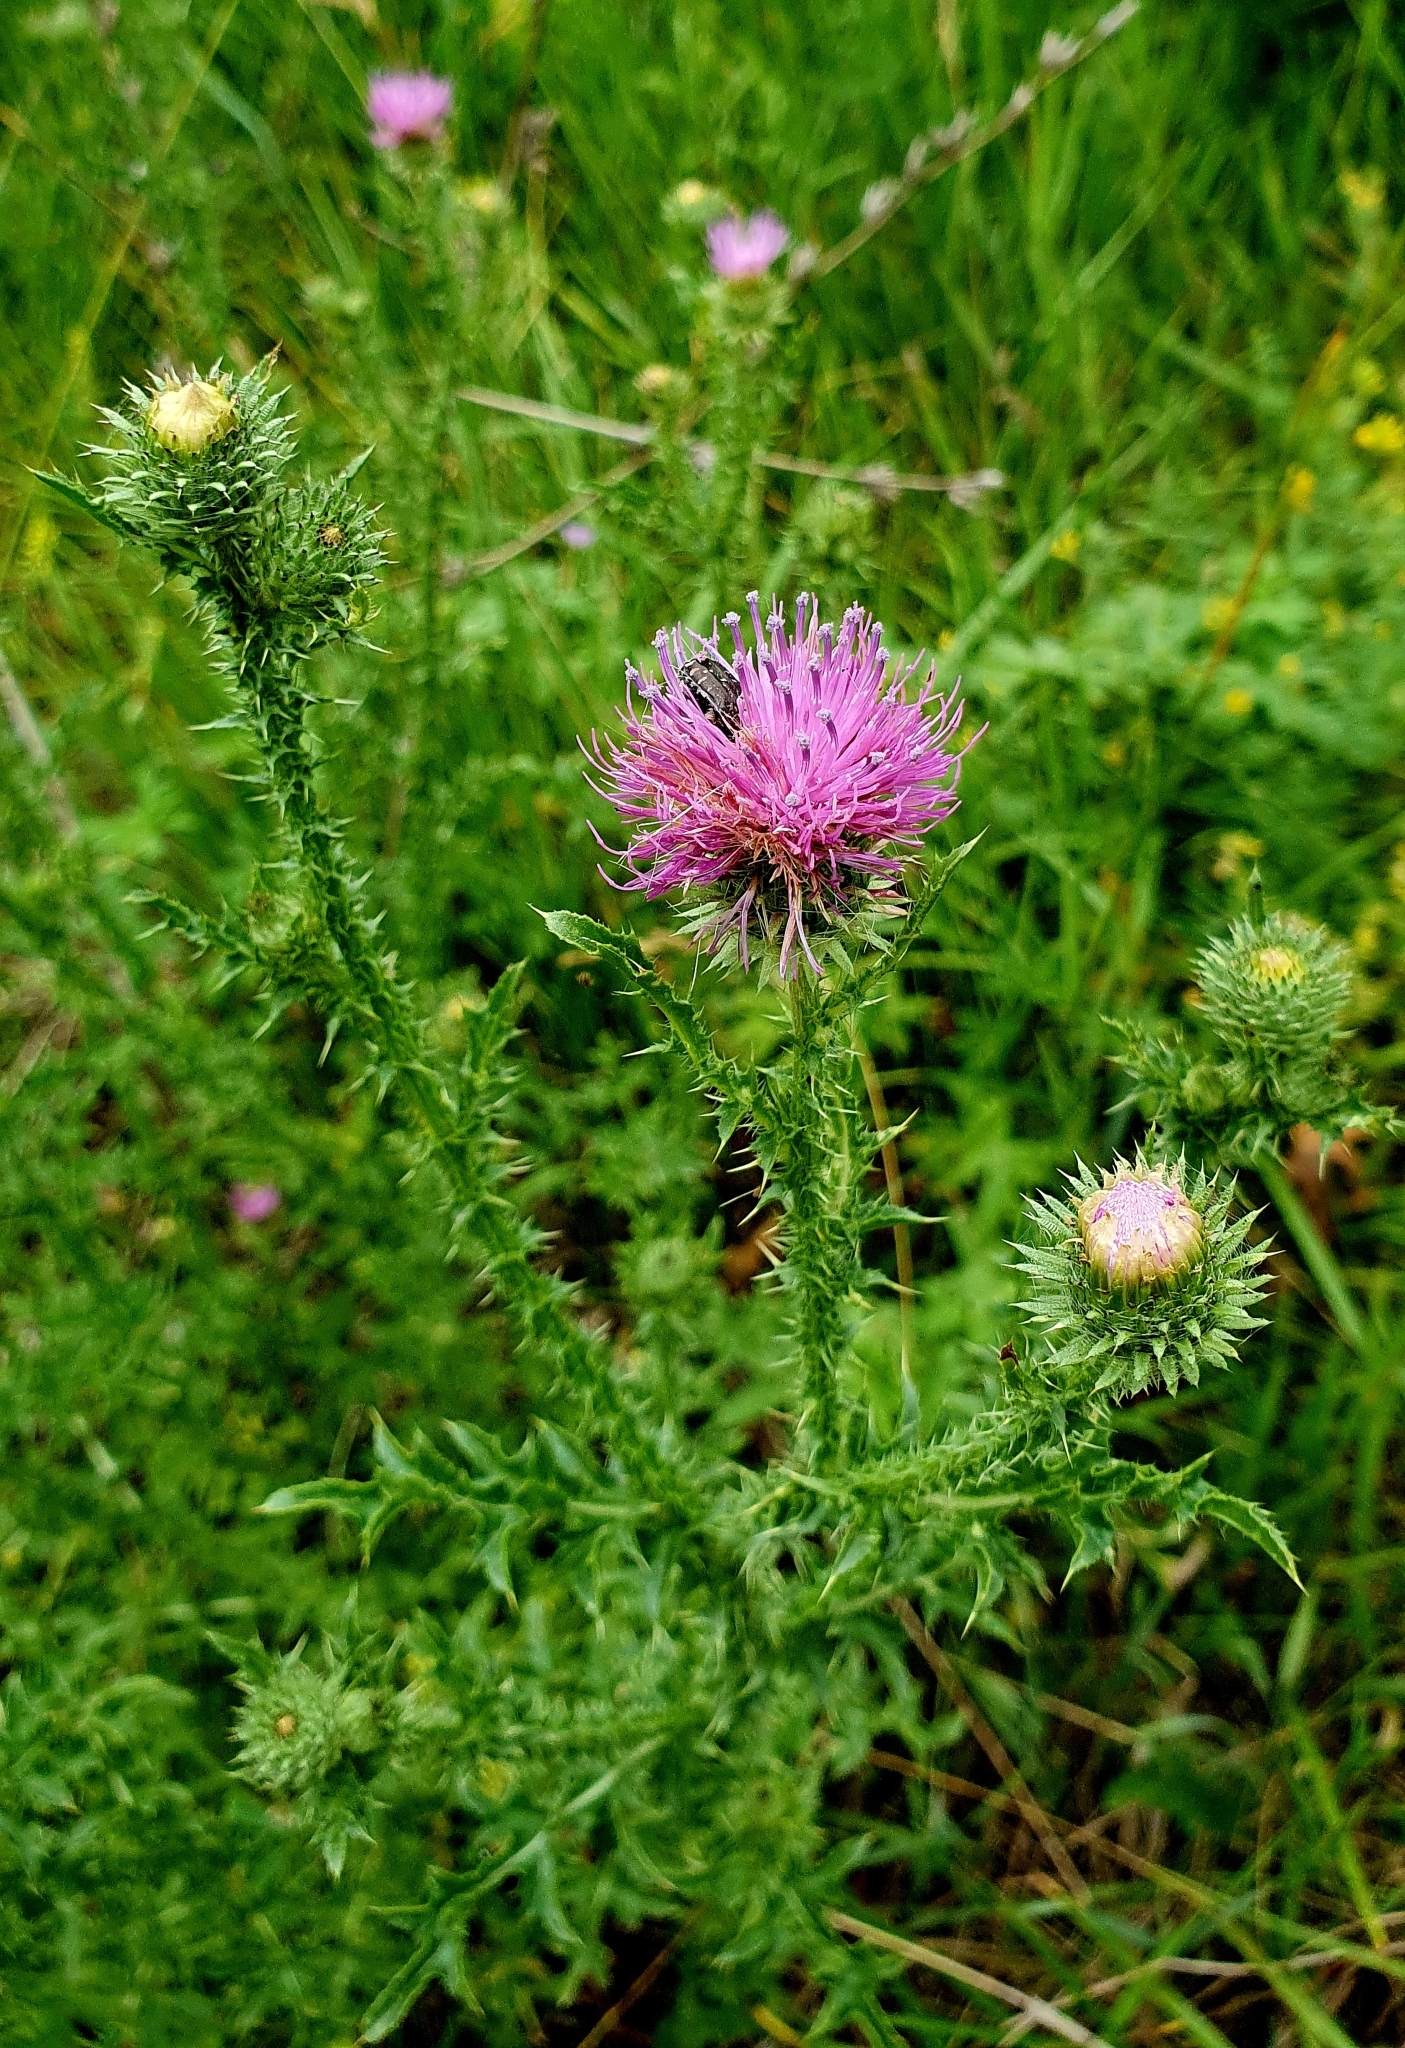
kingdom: Plantae
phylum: Tracheophyta
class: Magnoliopsida
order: Asterales
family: Asteraceae
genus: Carduus
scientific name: Carduus acanthoides
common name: Plumeless thistle
